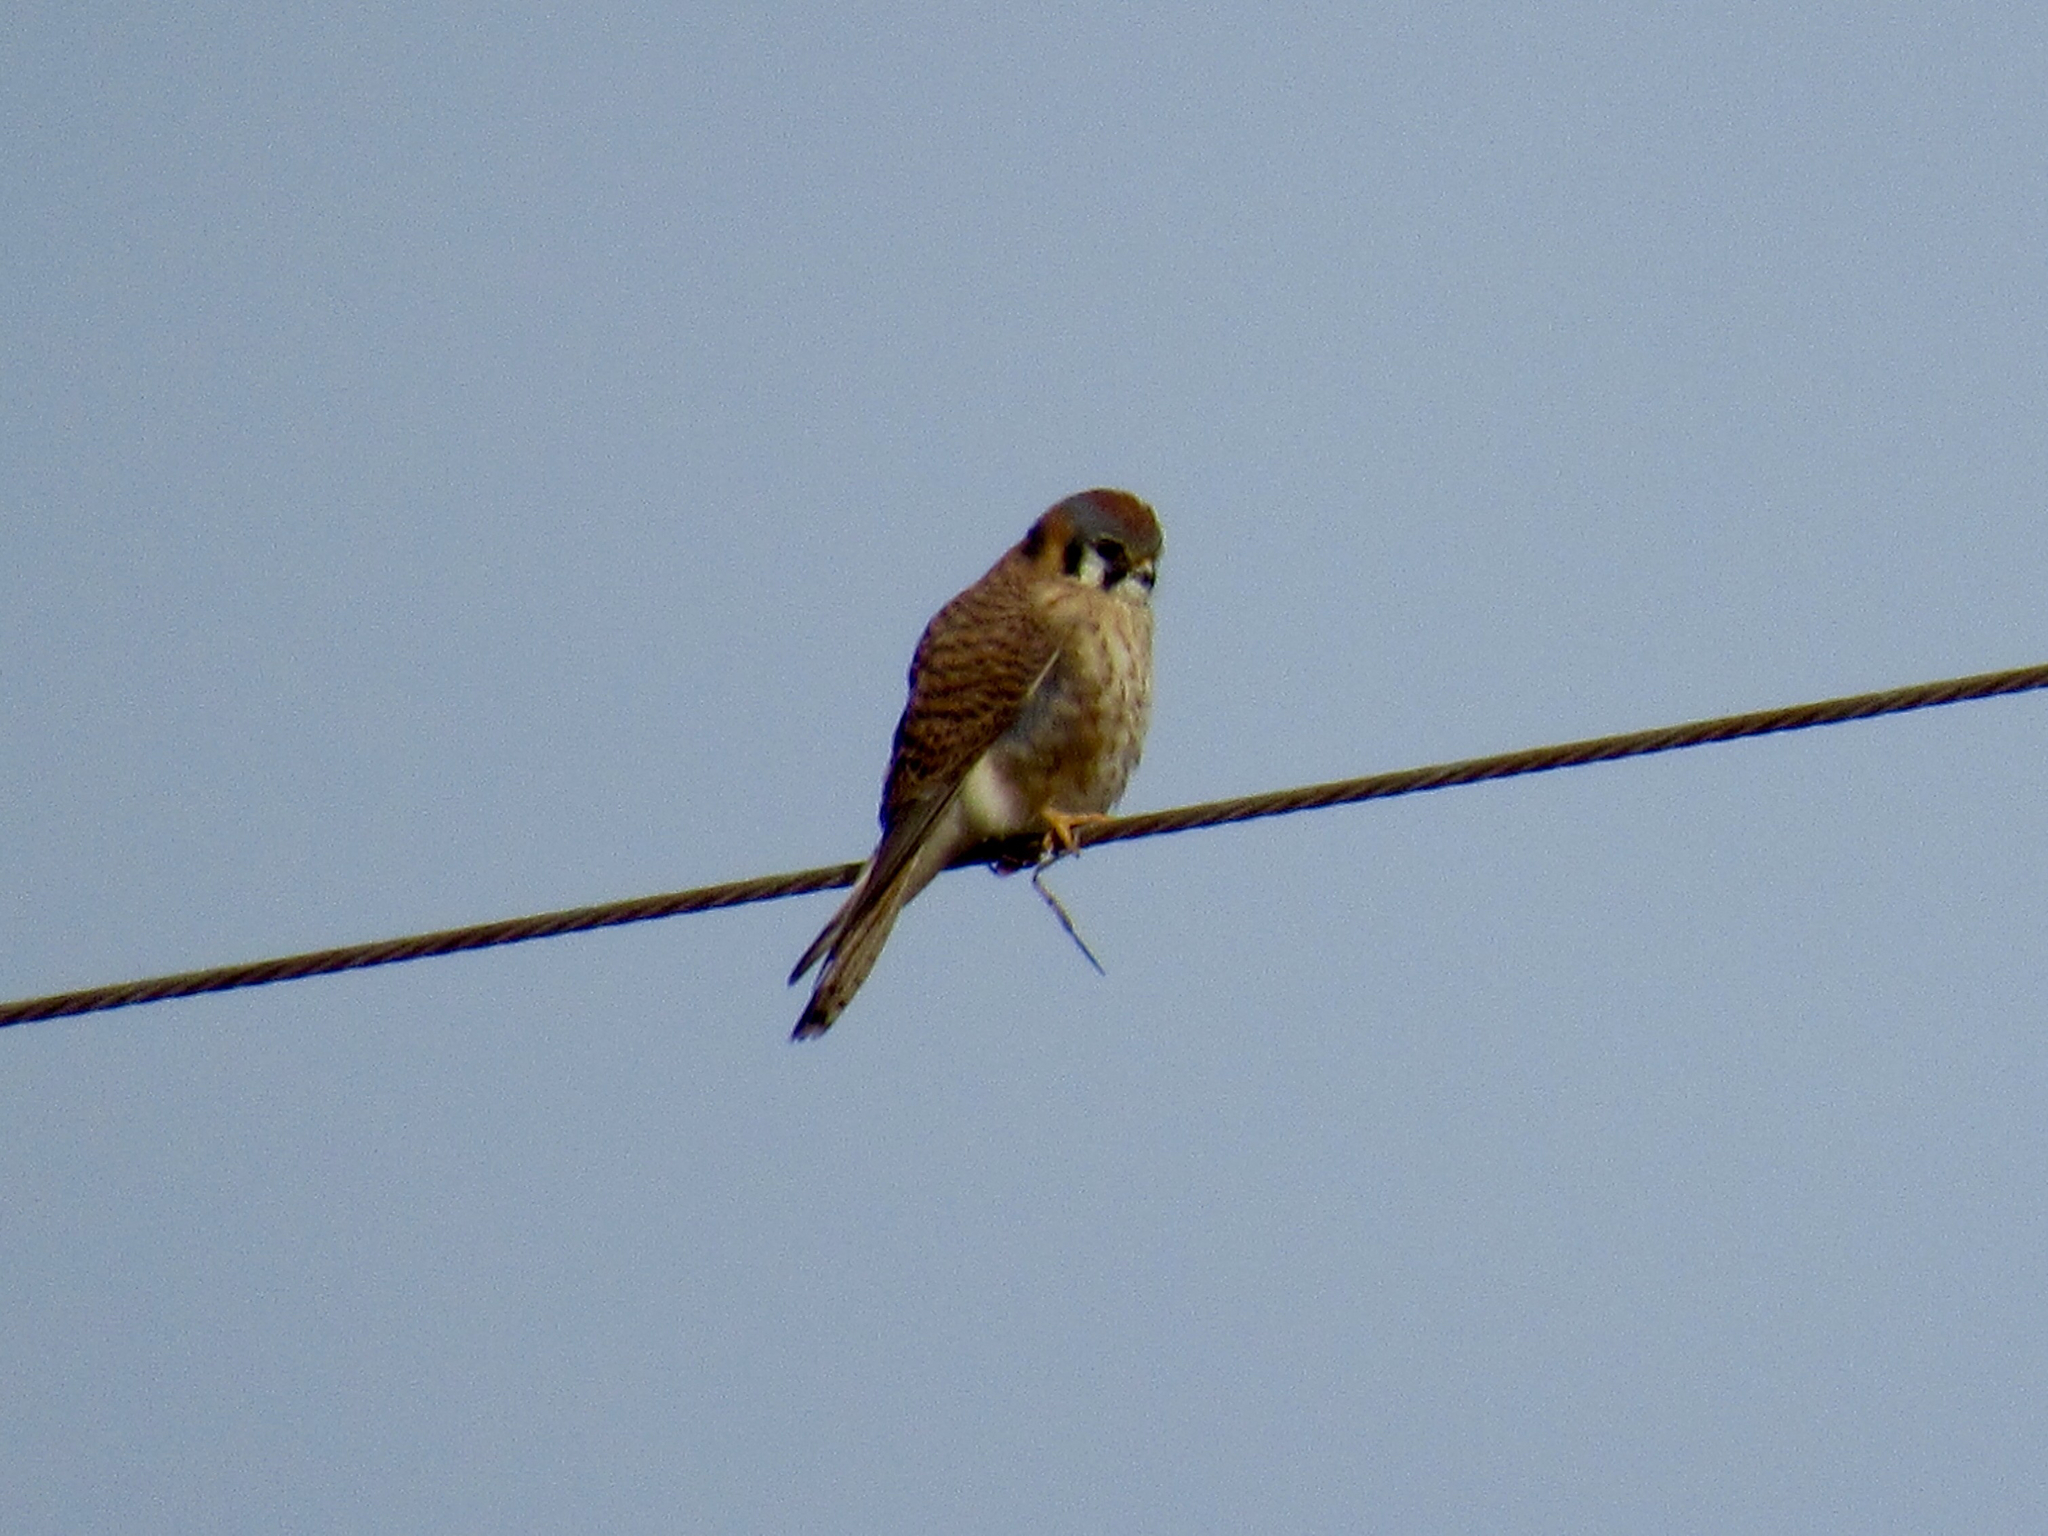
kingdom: Animalia
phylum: Chordata
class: Aves
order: Falconiformes
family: Falconidae
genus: Falco
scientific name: Falco sparverius
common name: American kestrel
